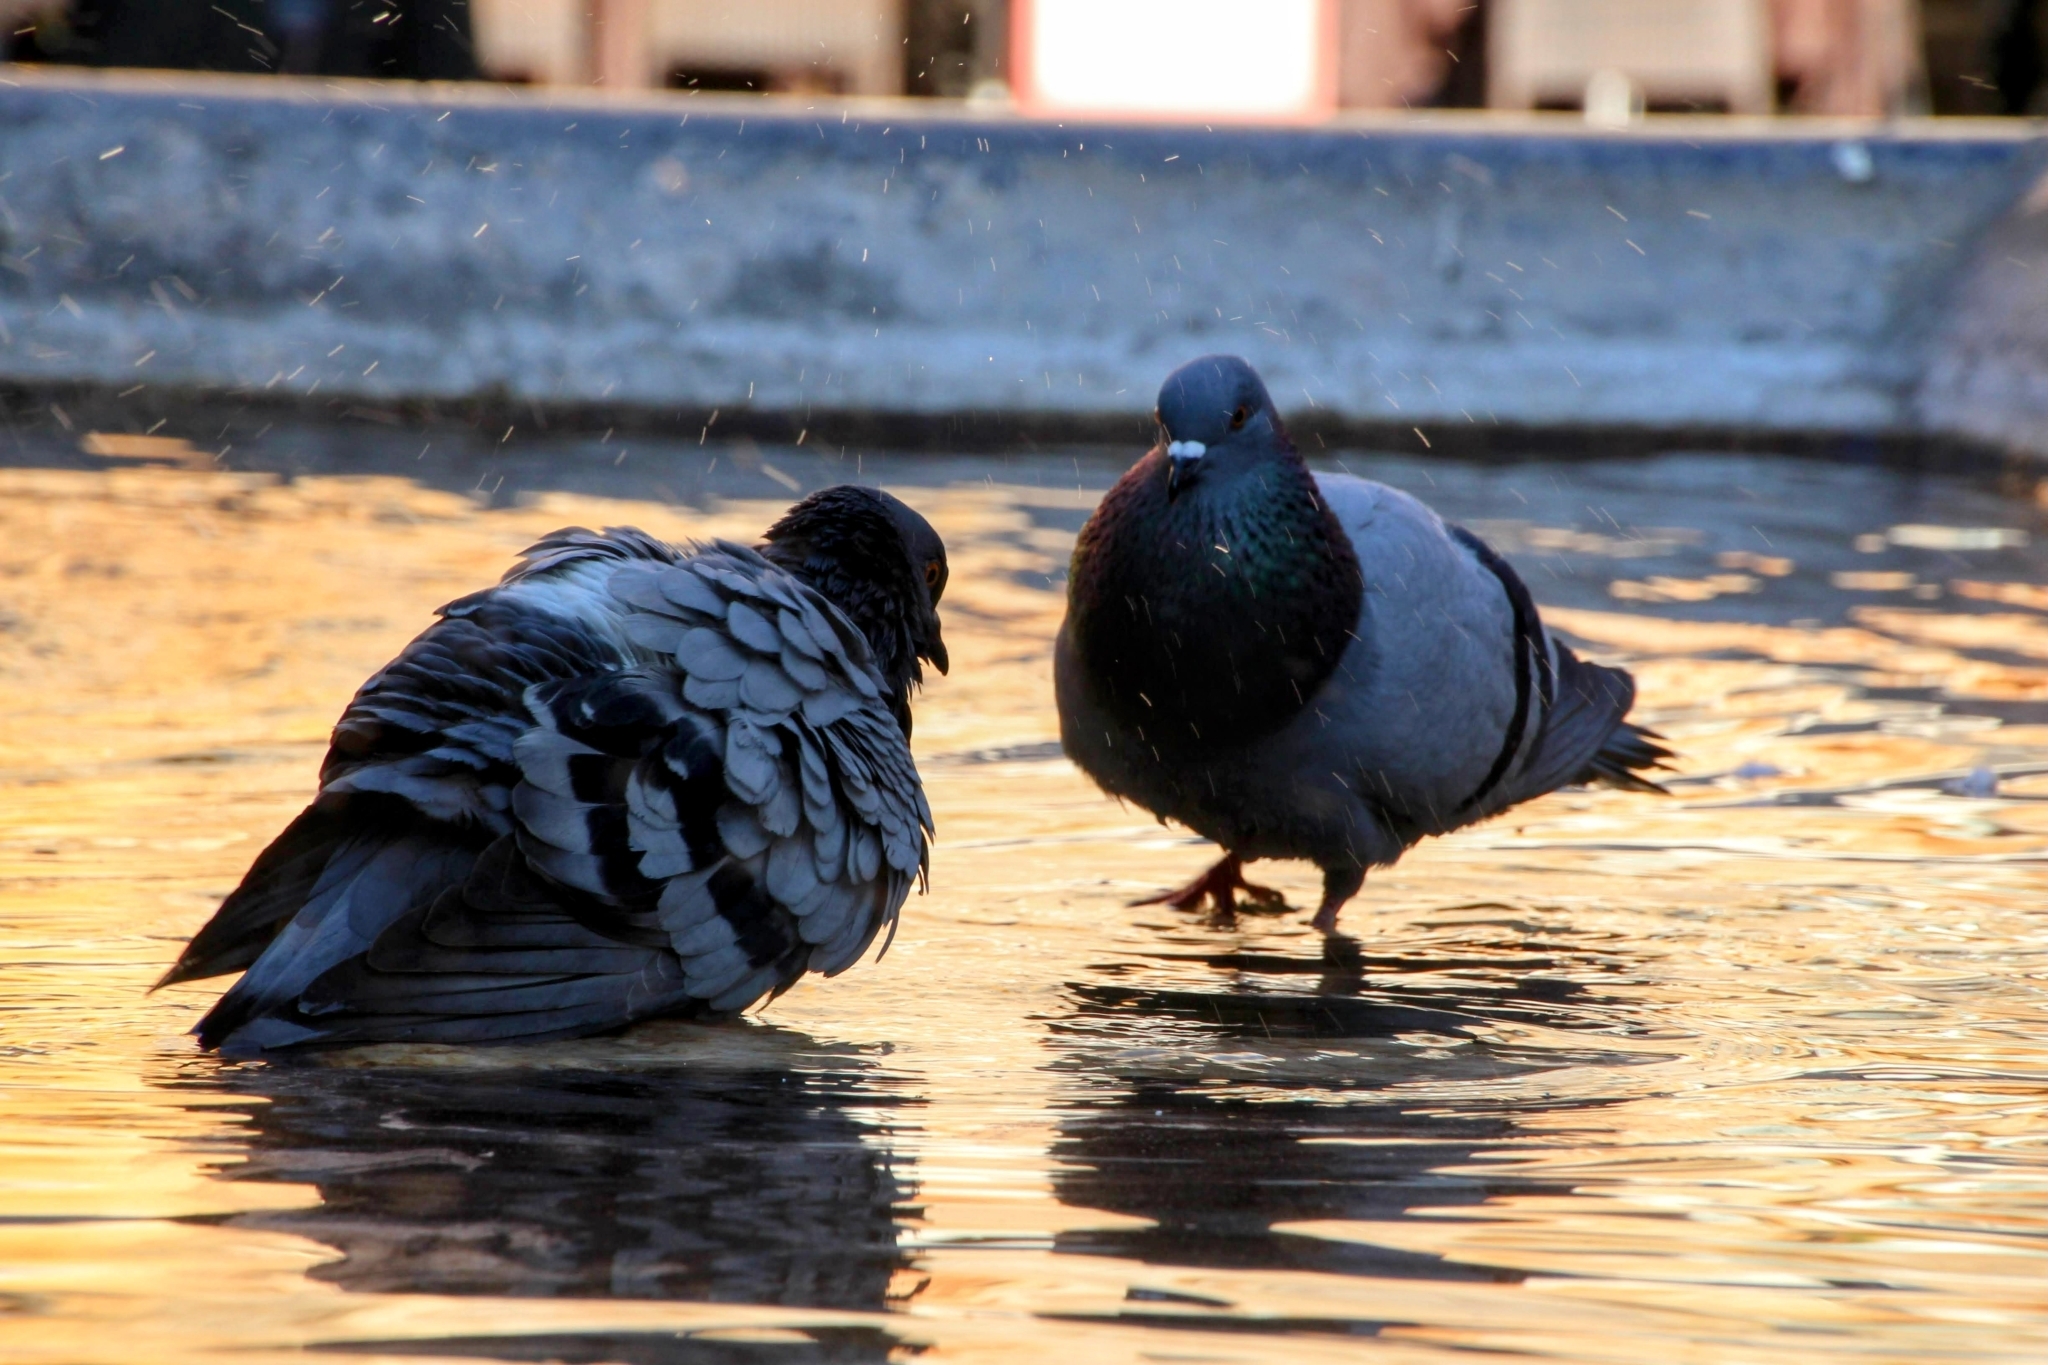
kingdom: Animalia
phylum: Chordata
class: Aves
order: Columbiformes
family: Columbidae
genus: Columba
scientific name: Columba livia
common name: Rock pigeon
